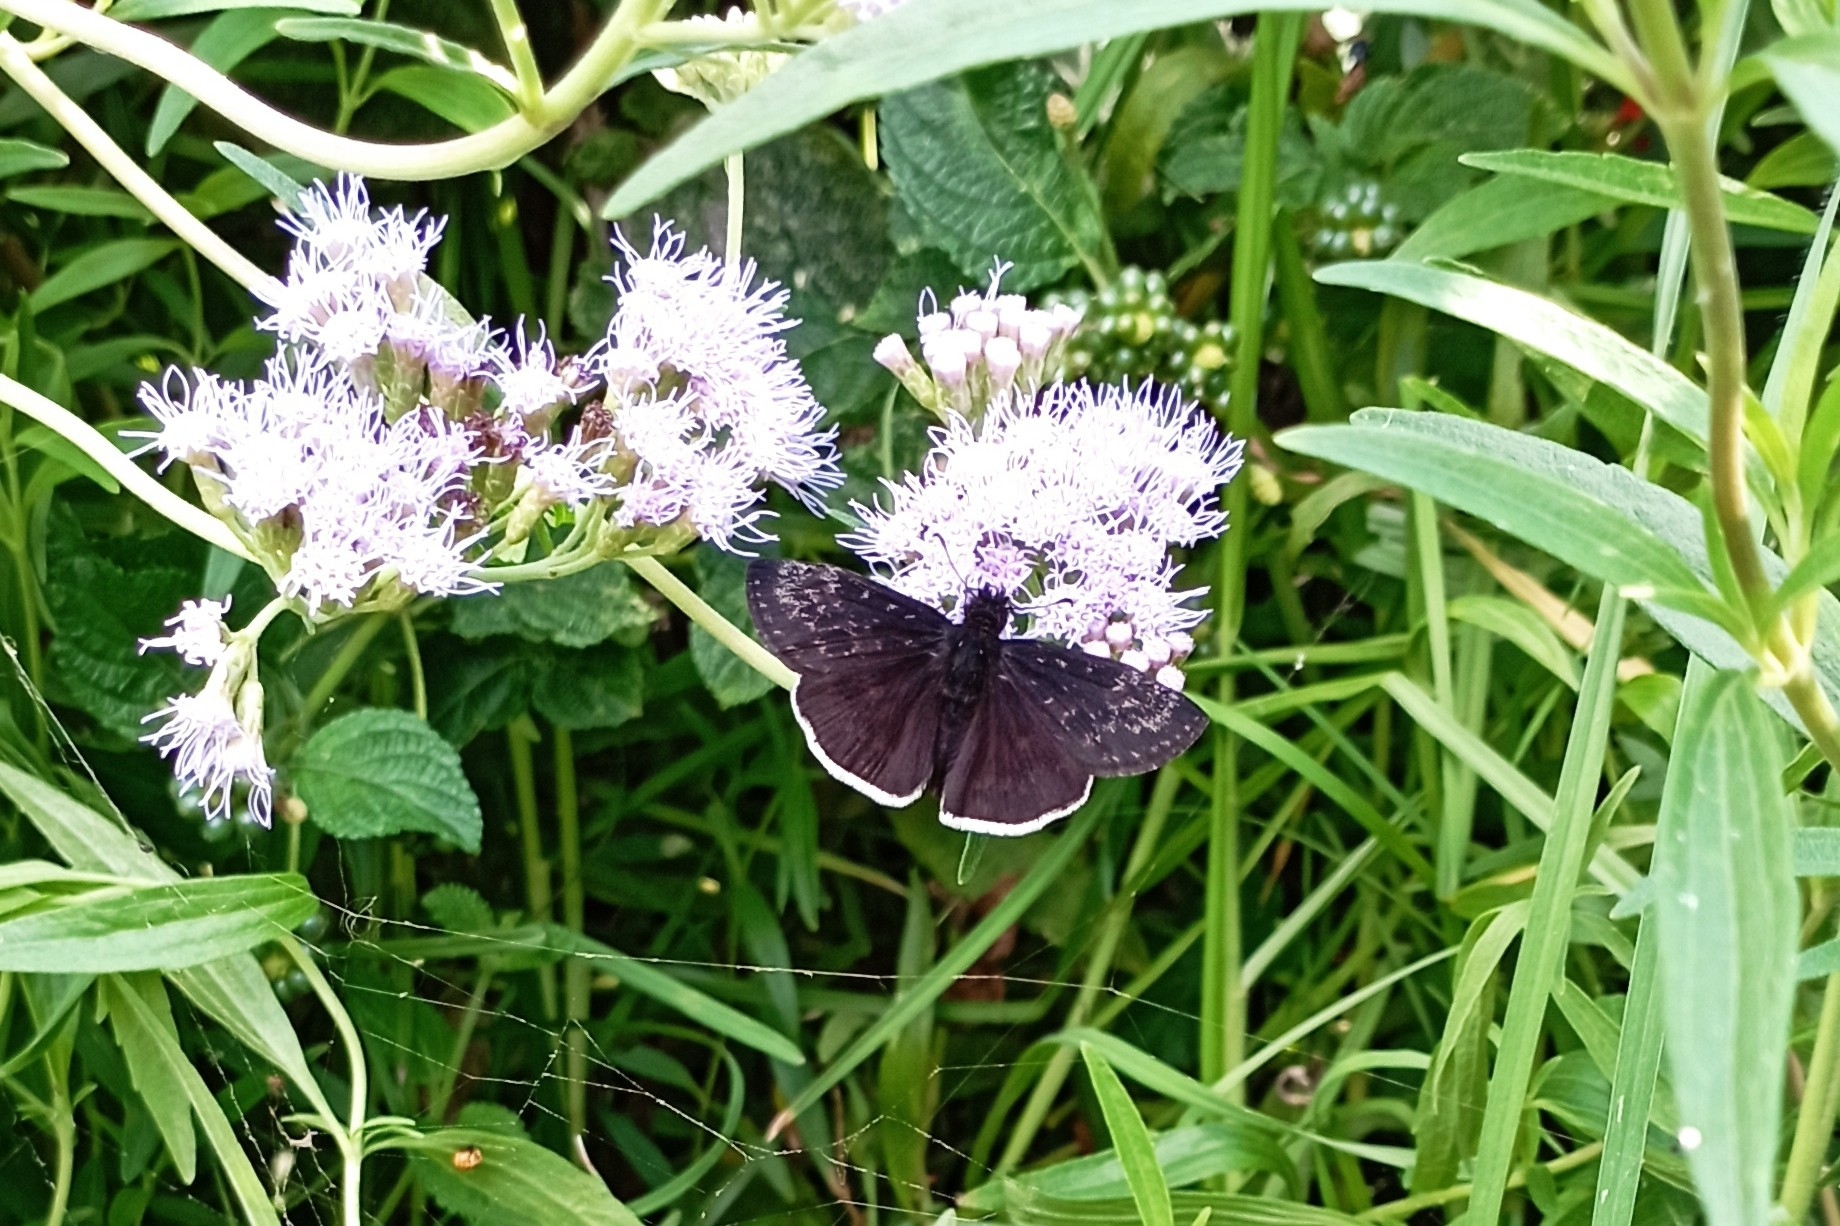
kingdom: Animalia
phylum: Arthropoda
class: Insecta
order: Lepidoptera
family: Hesperiidae
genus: Erynnis
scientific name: Erynnis funeralis
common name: Funereal duskywing
